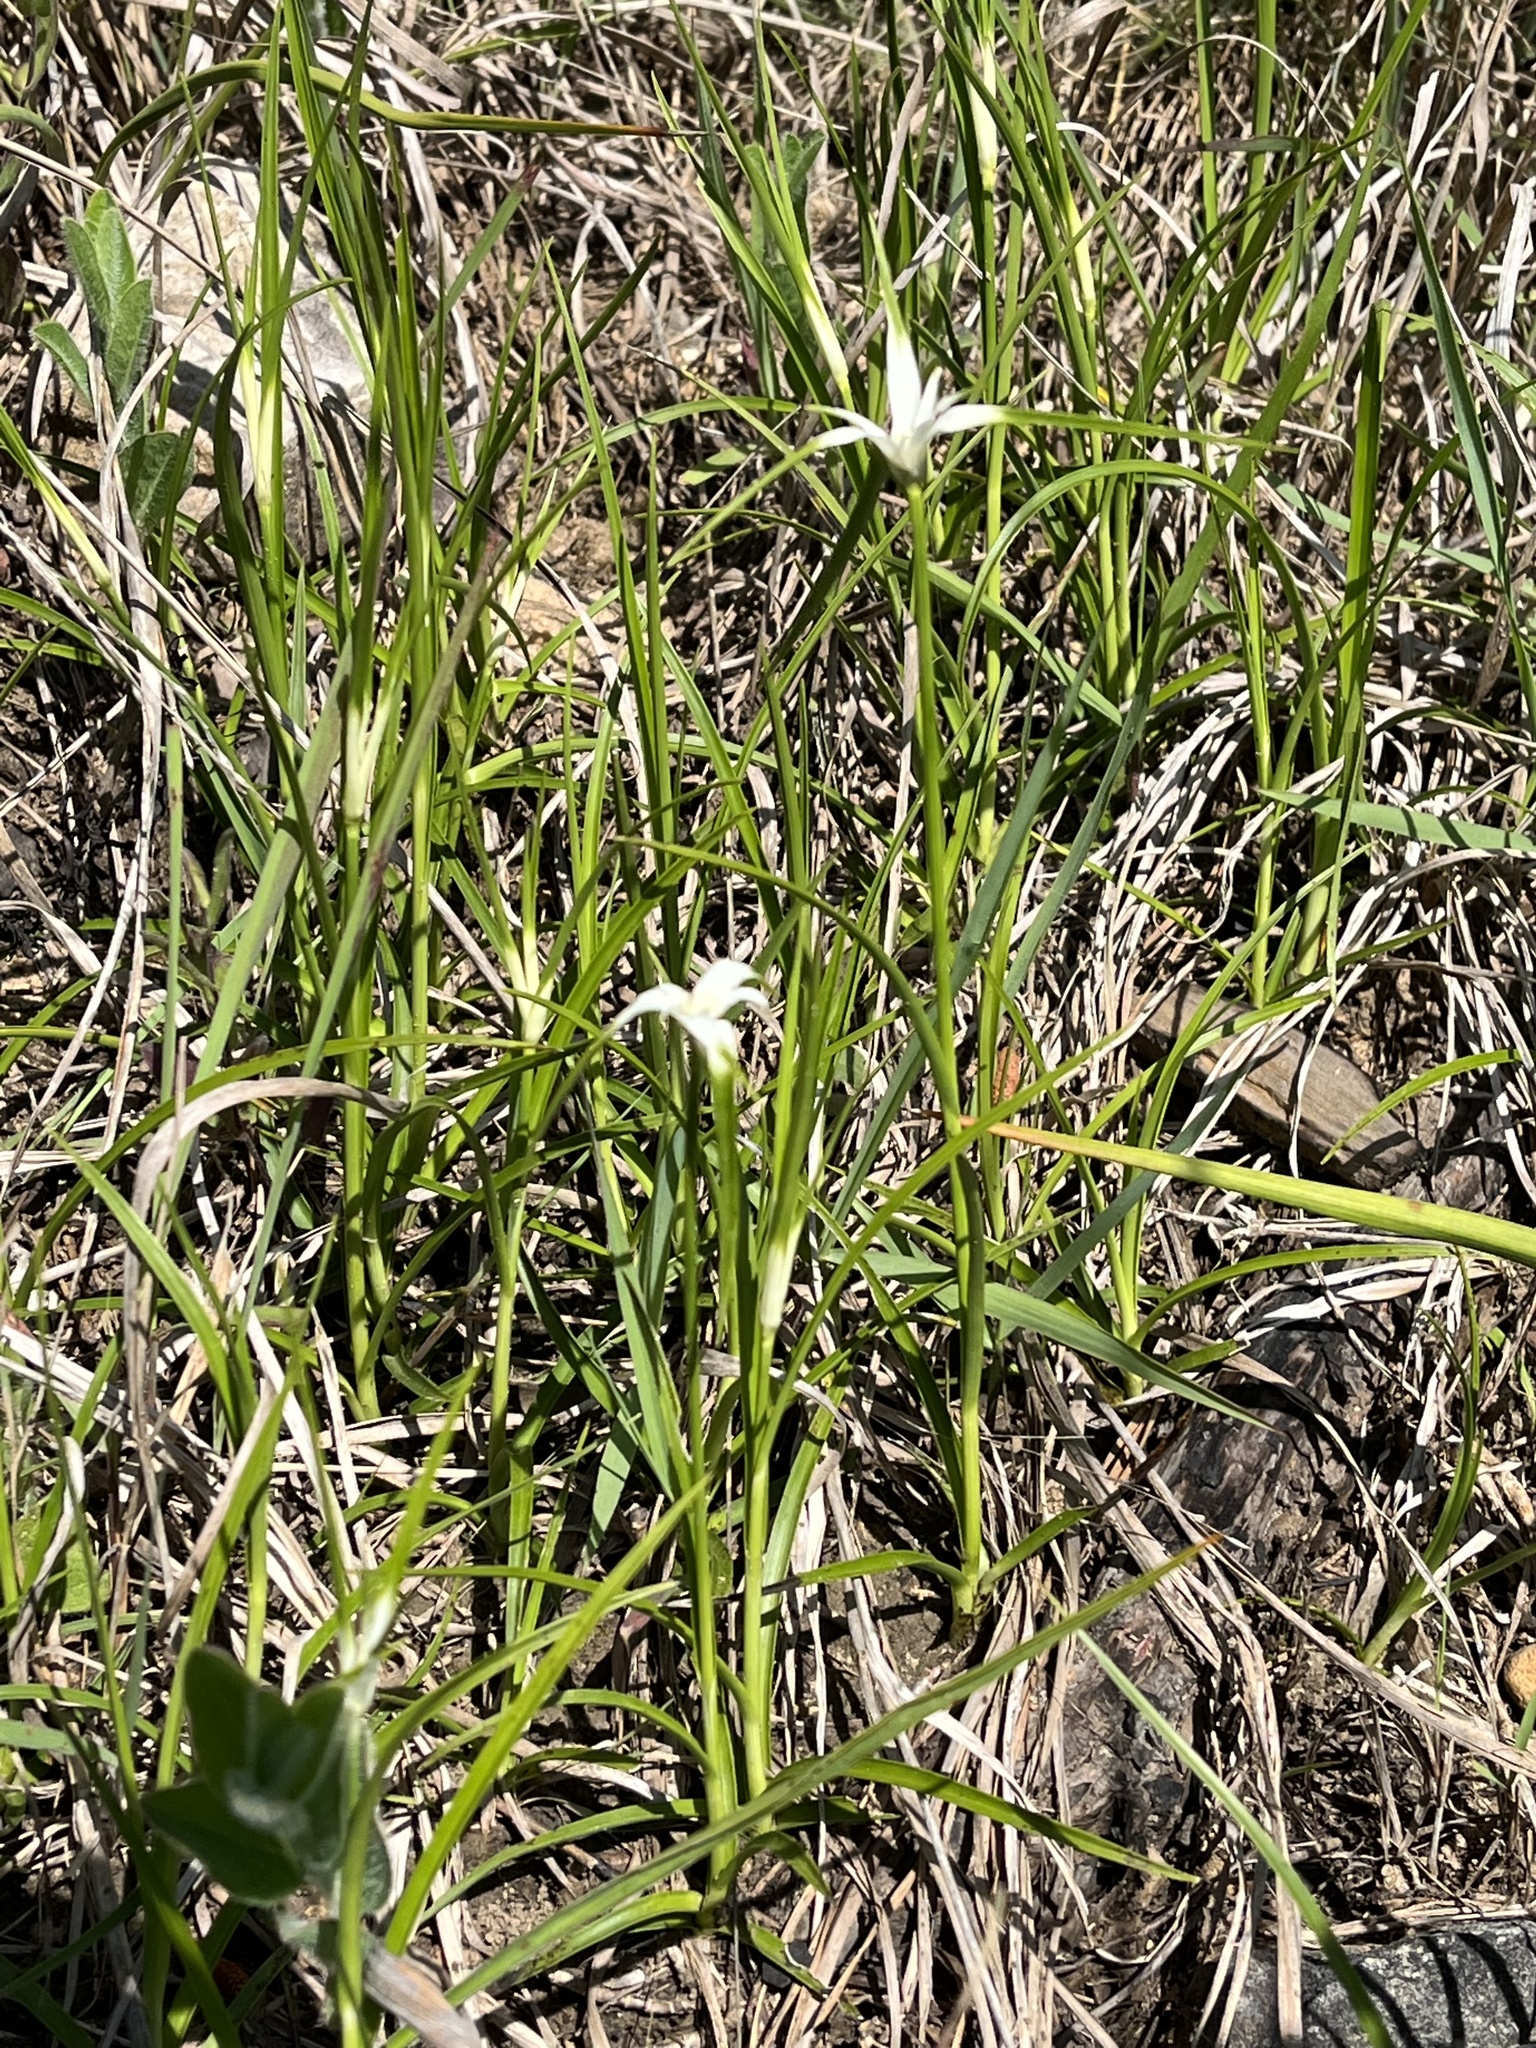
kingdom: Plantae
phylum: Tracheophyta
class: Liliopsida
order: Poales
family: Cyperaceae
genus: Rhynchospora
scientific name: Rhynchospora colorata
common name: Star sedge
